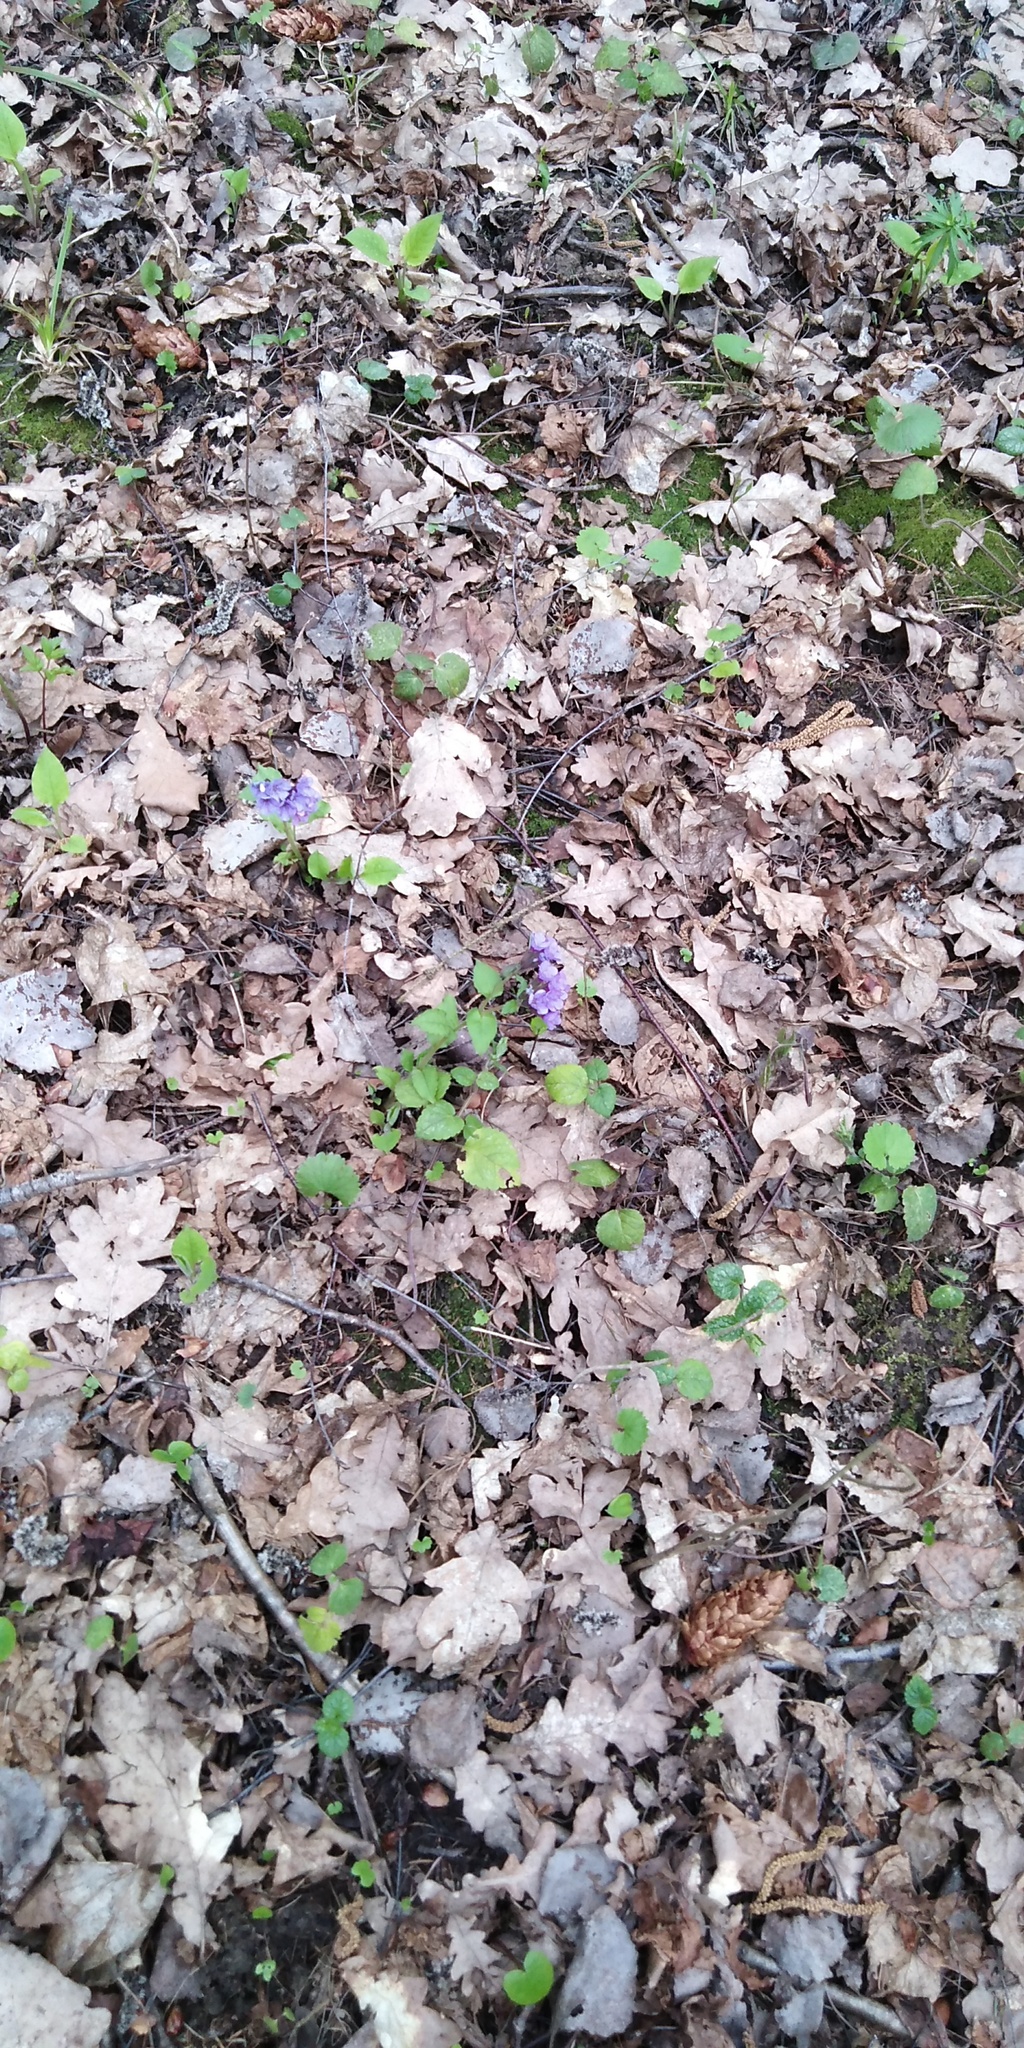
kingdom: Plantae
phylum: Tracheophyta
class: Magnoliopsida
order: Boraginales
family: Boraginaceae
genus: Pulmonaria
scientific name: Pulmonaria obscura
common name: Suffolk lungwort
